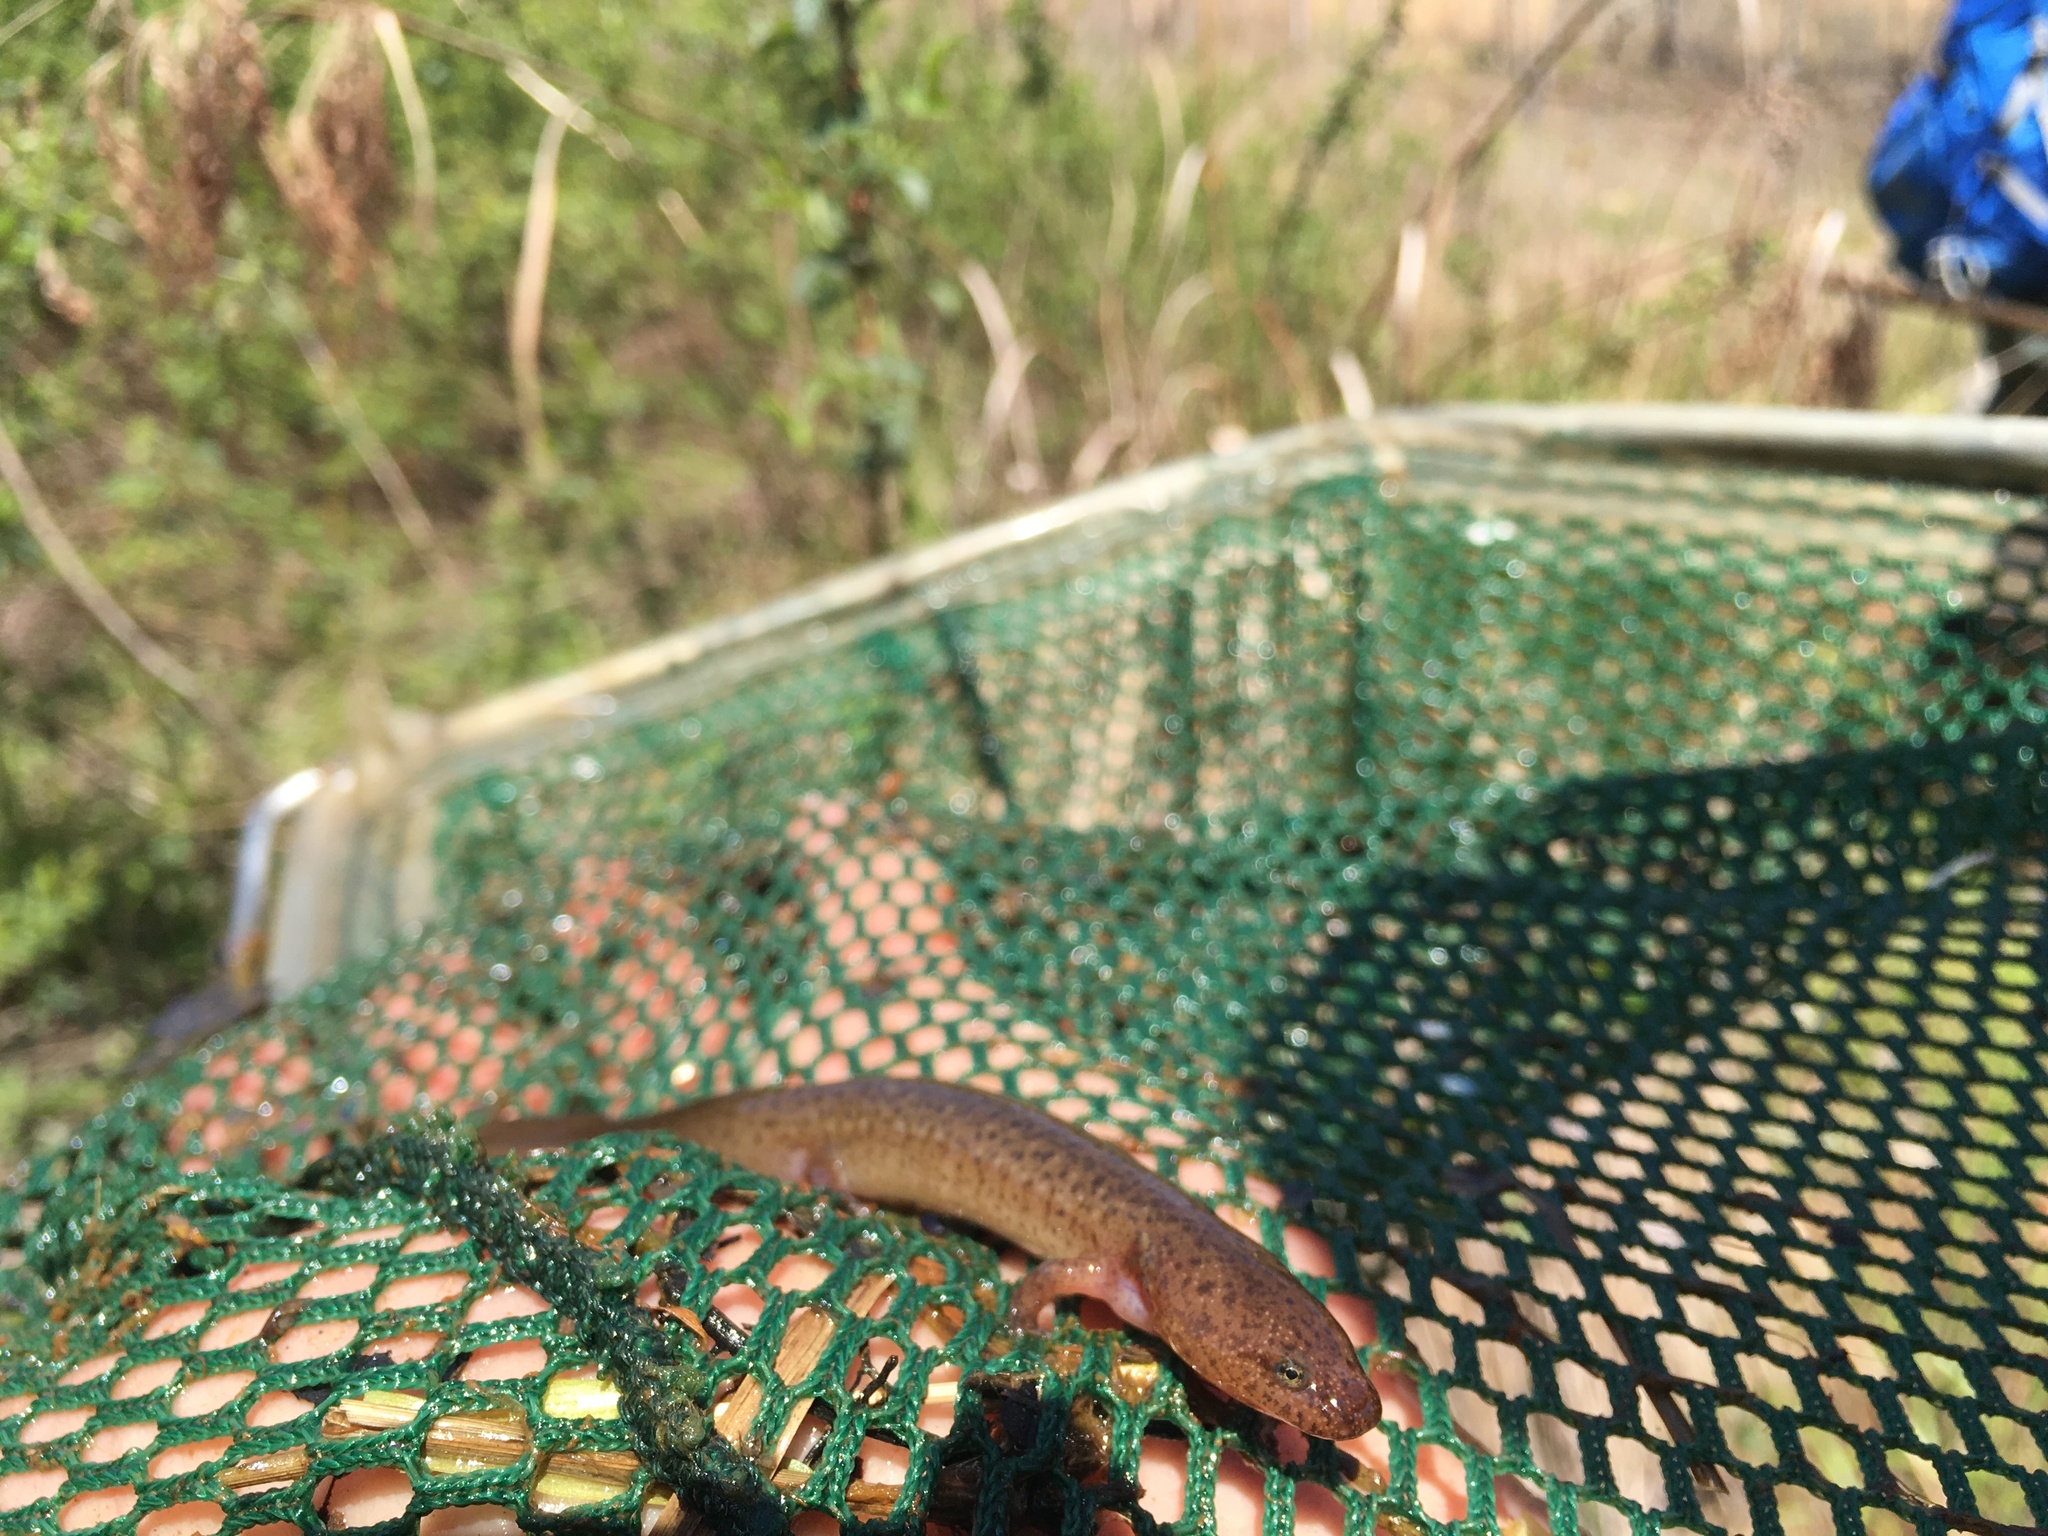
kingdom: Animalia
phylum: Chordata
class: Amphibia
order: Caudata
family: Plethodontidae
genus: Pseudotriton
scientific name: Pseudotriton ruber
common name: Red salamander
